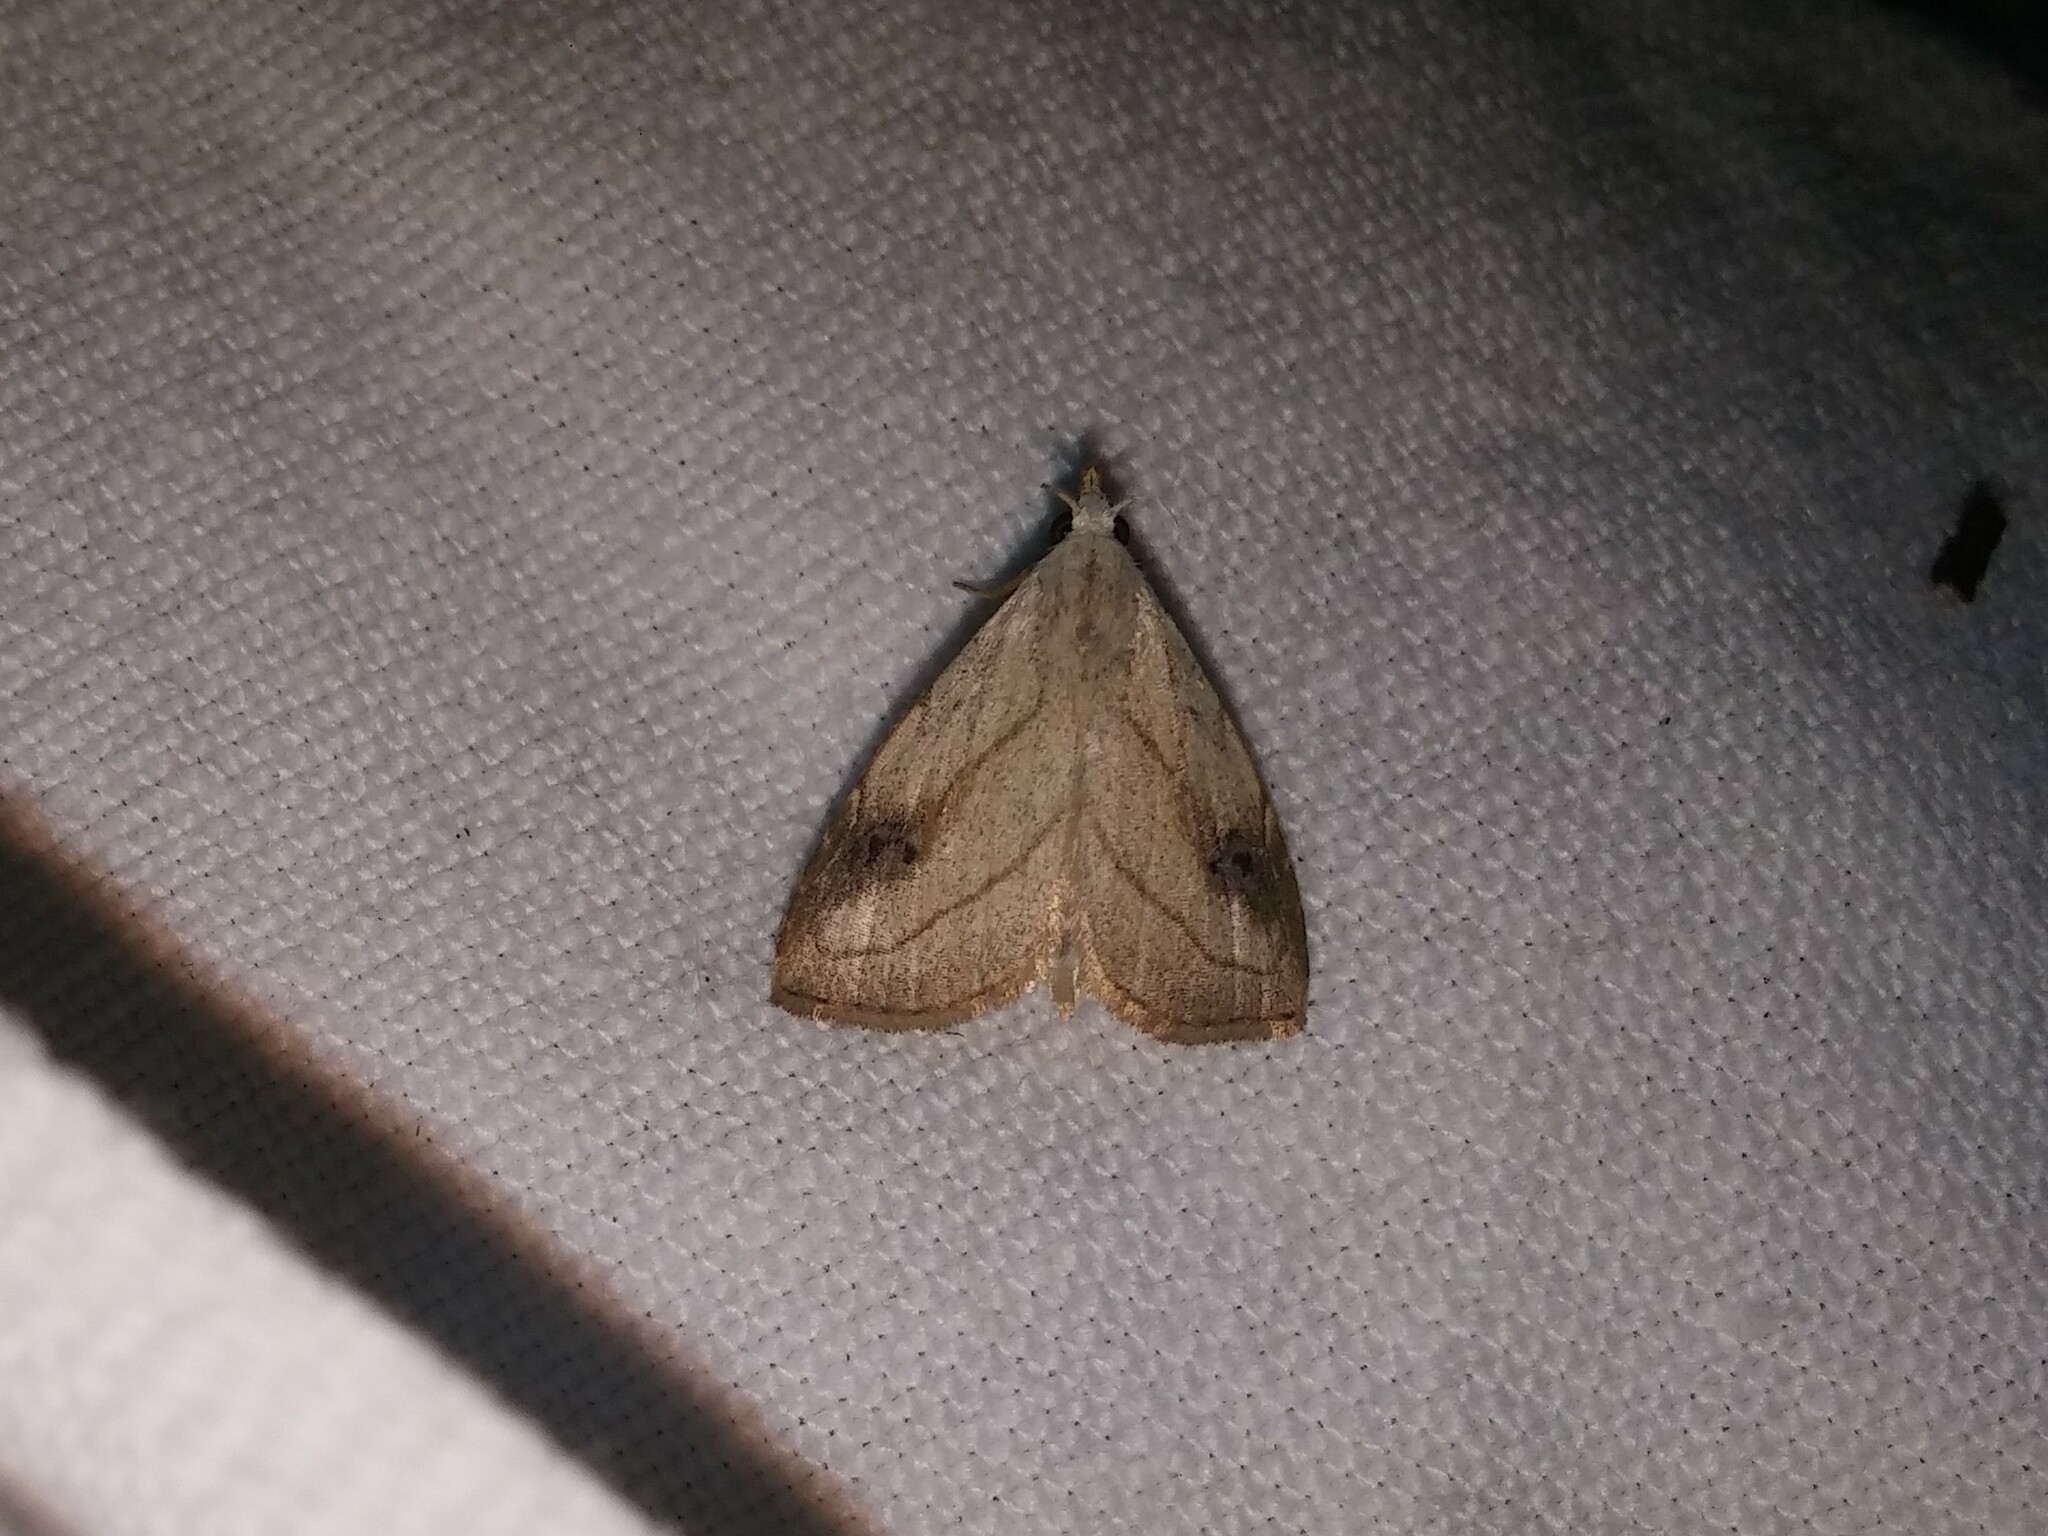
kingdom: Animalia
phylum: Arthropoda
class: Insecta
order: Lepidoptera
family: Erebidae
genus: Rivula
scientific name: Rivula propinqualis
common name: Spotted grass moth
